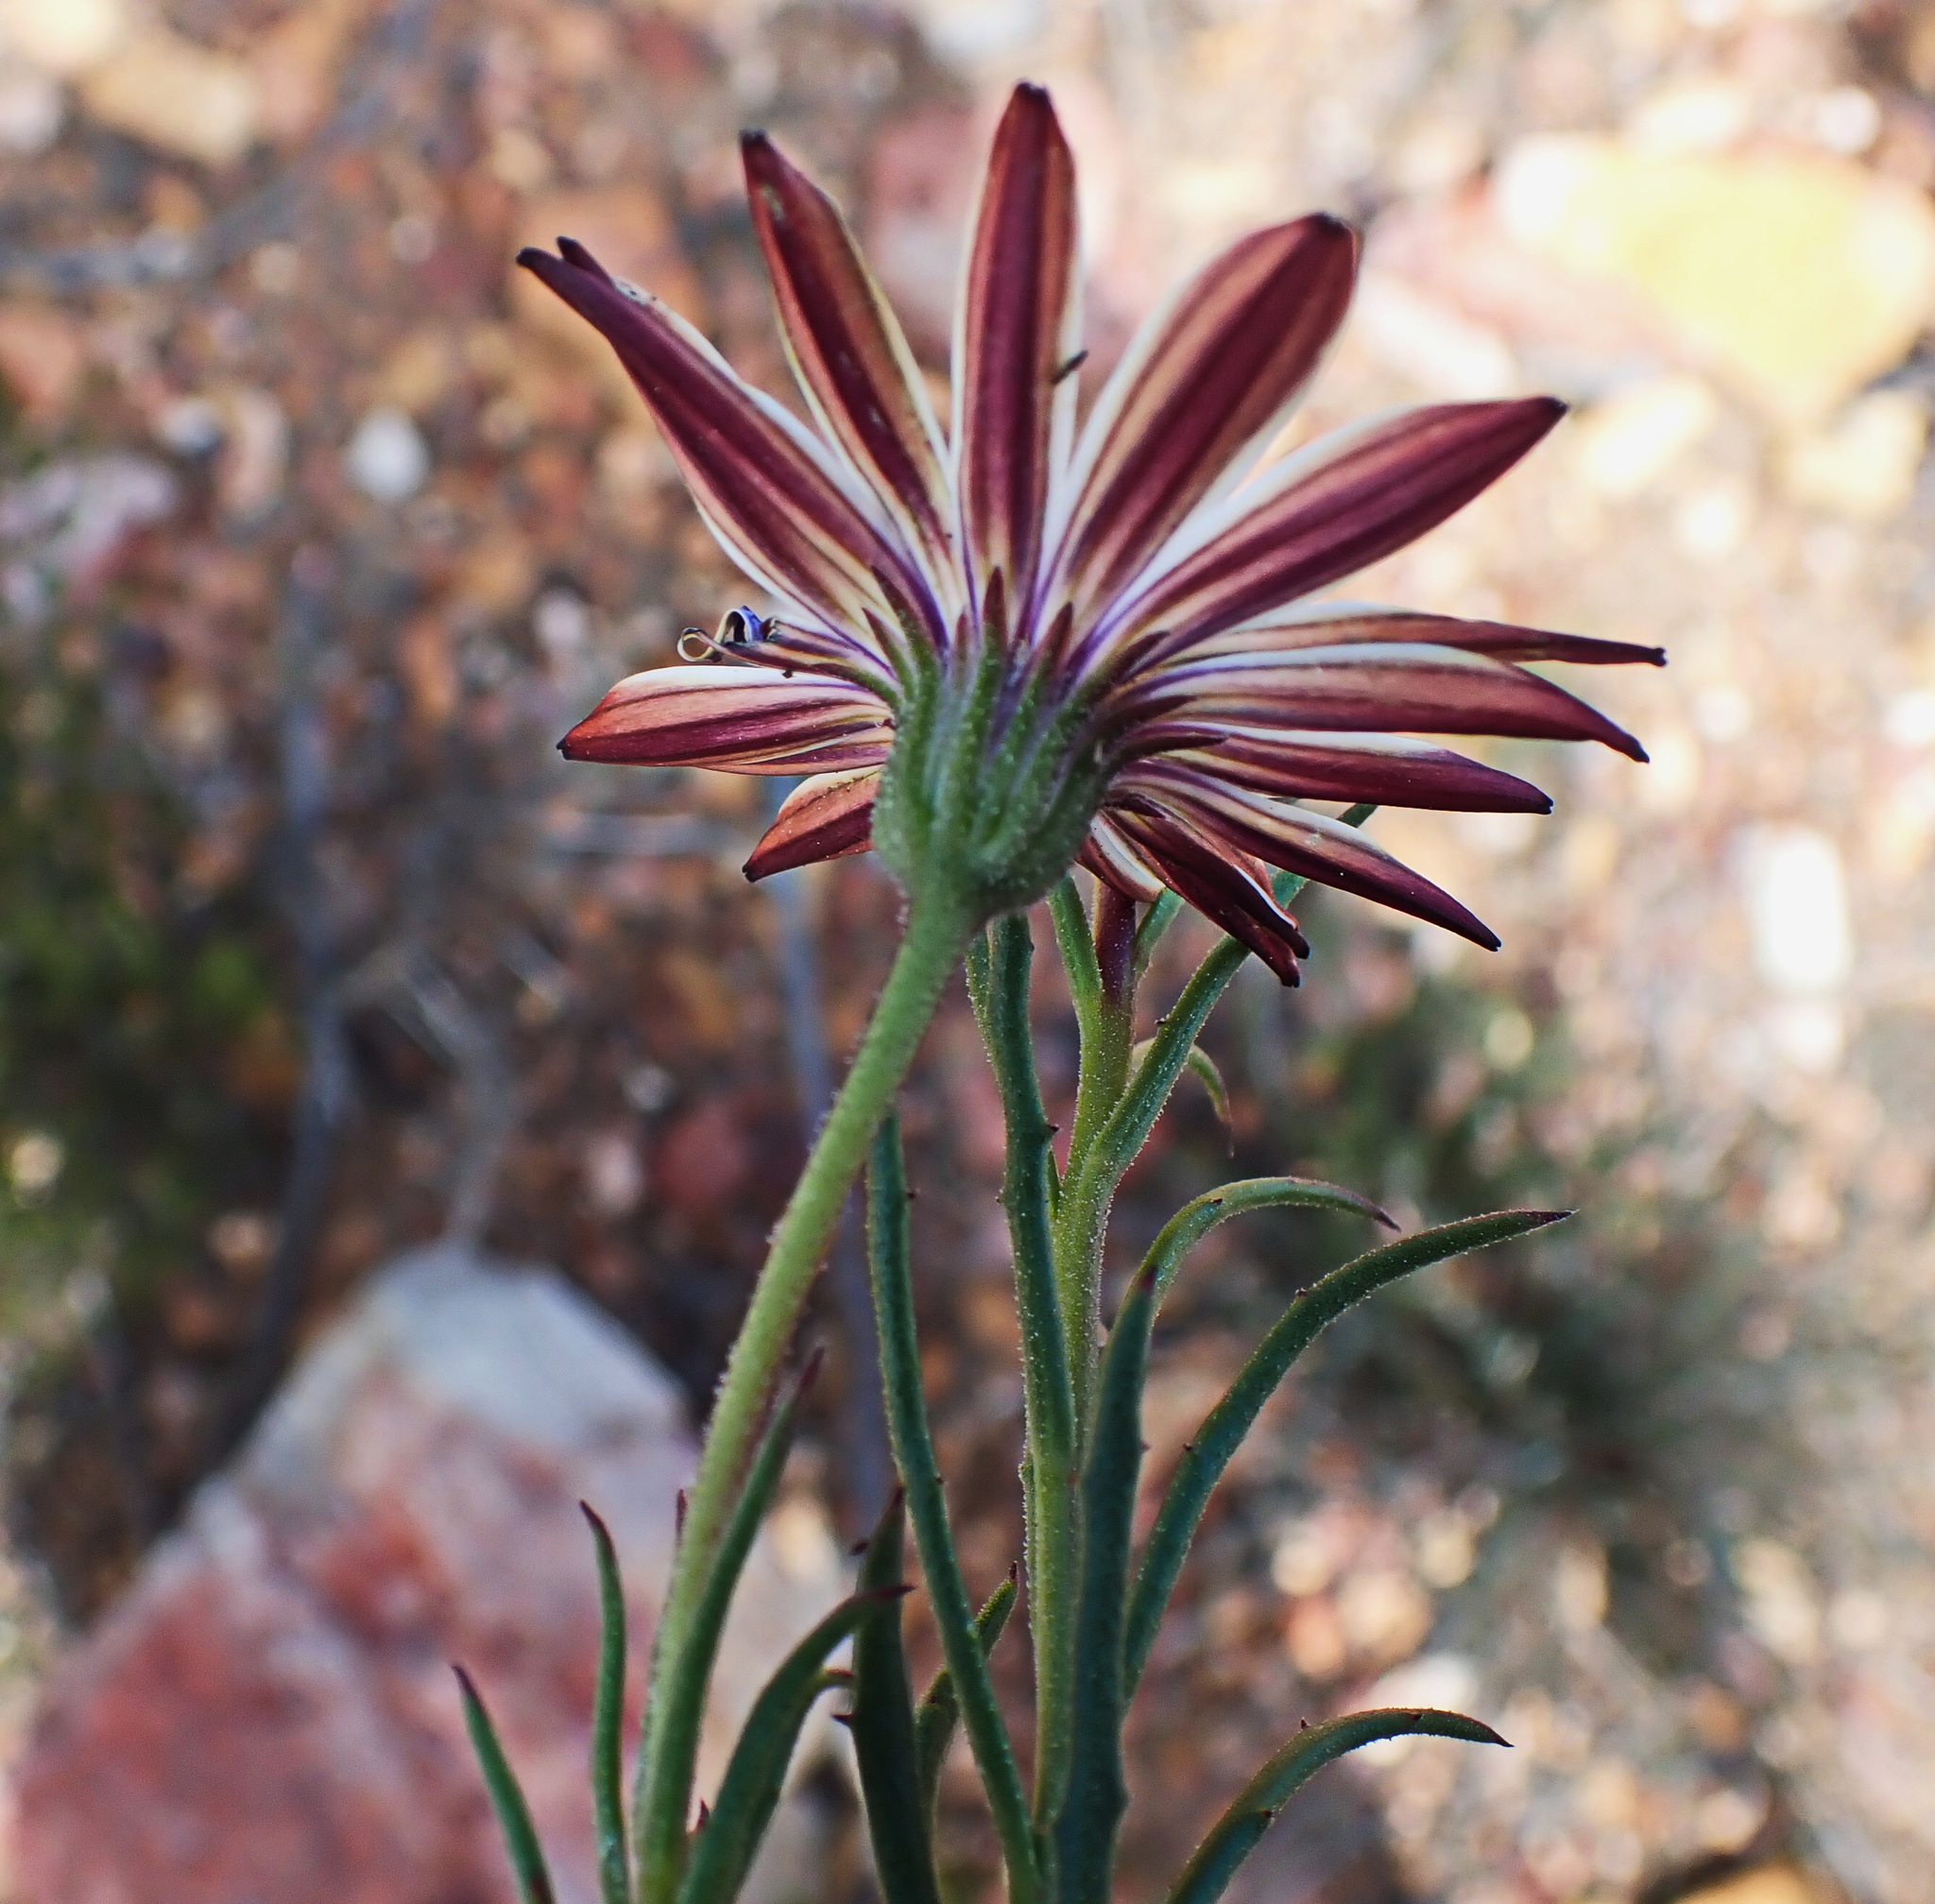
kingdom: Plantae
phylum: Tracheophyta
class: Magnoliopsida
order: Asterales
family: Asteraceae
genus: Dimorphotheca
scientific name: Dimorphotheca montana
